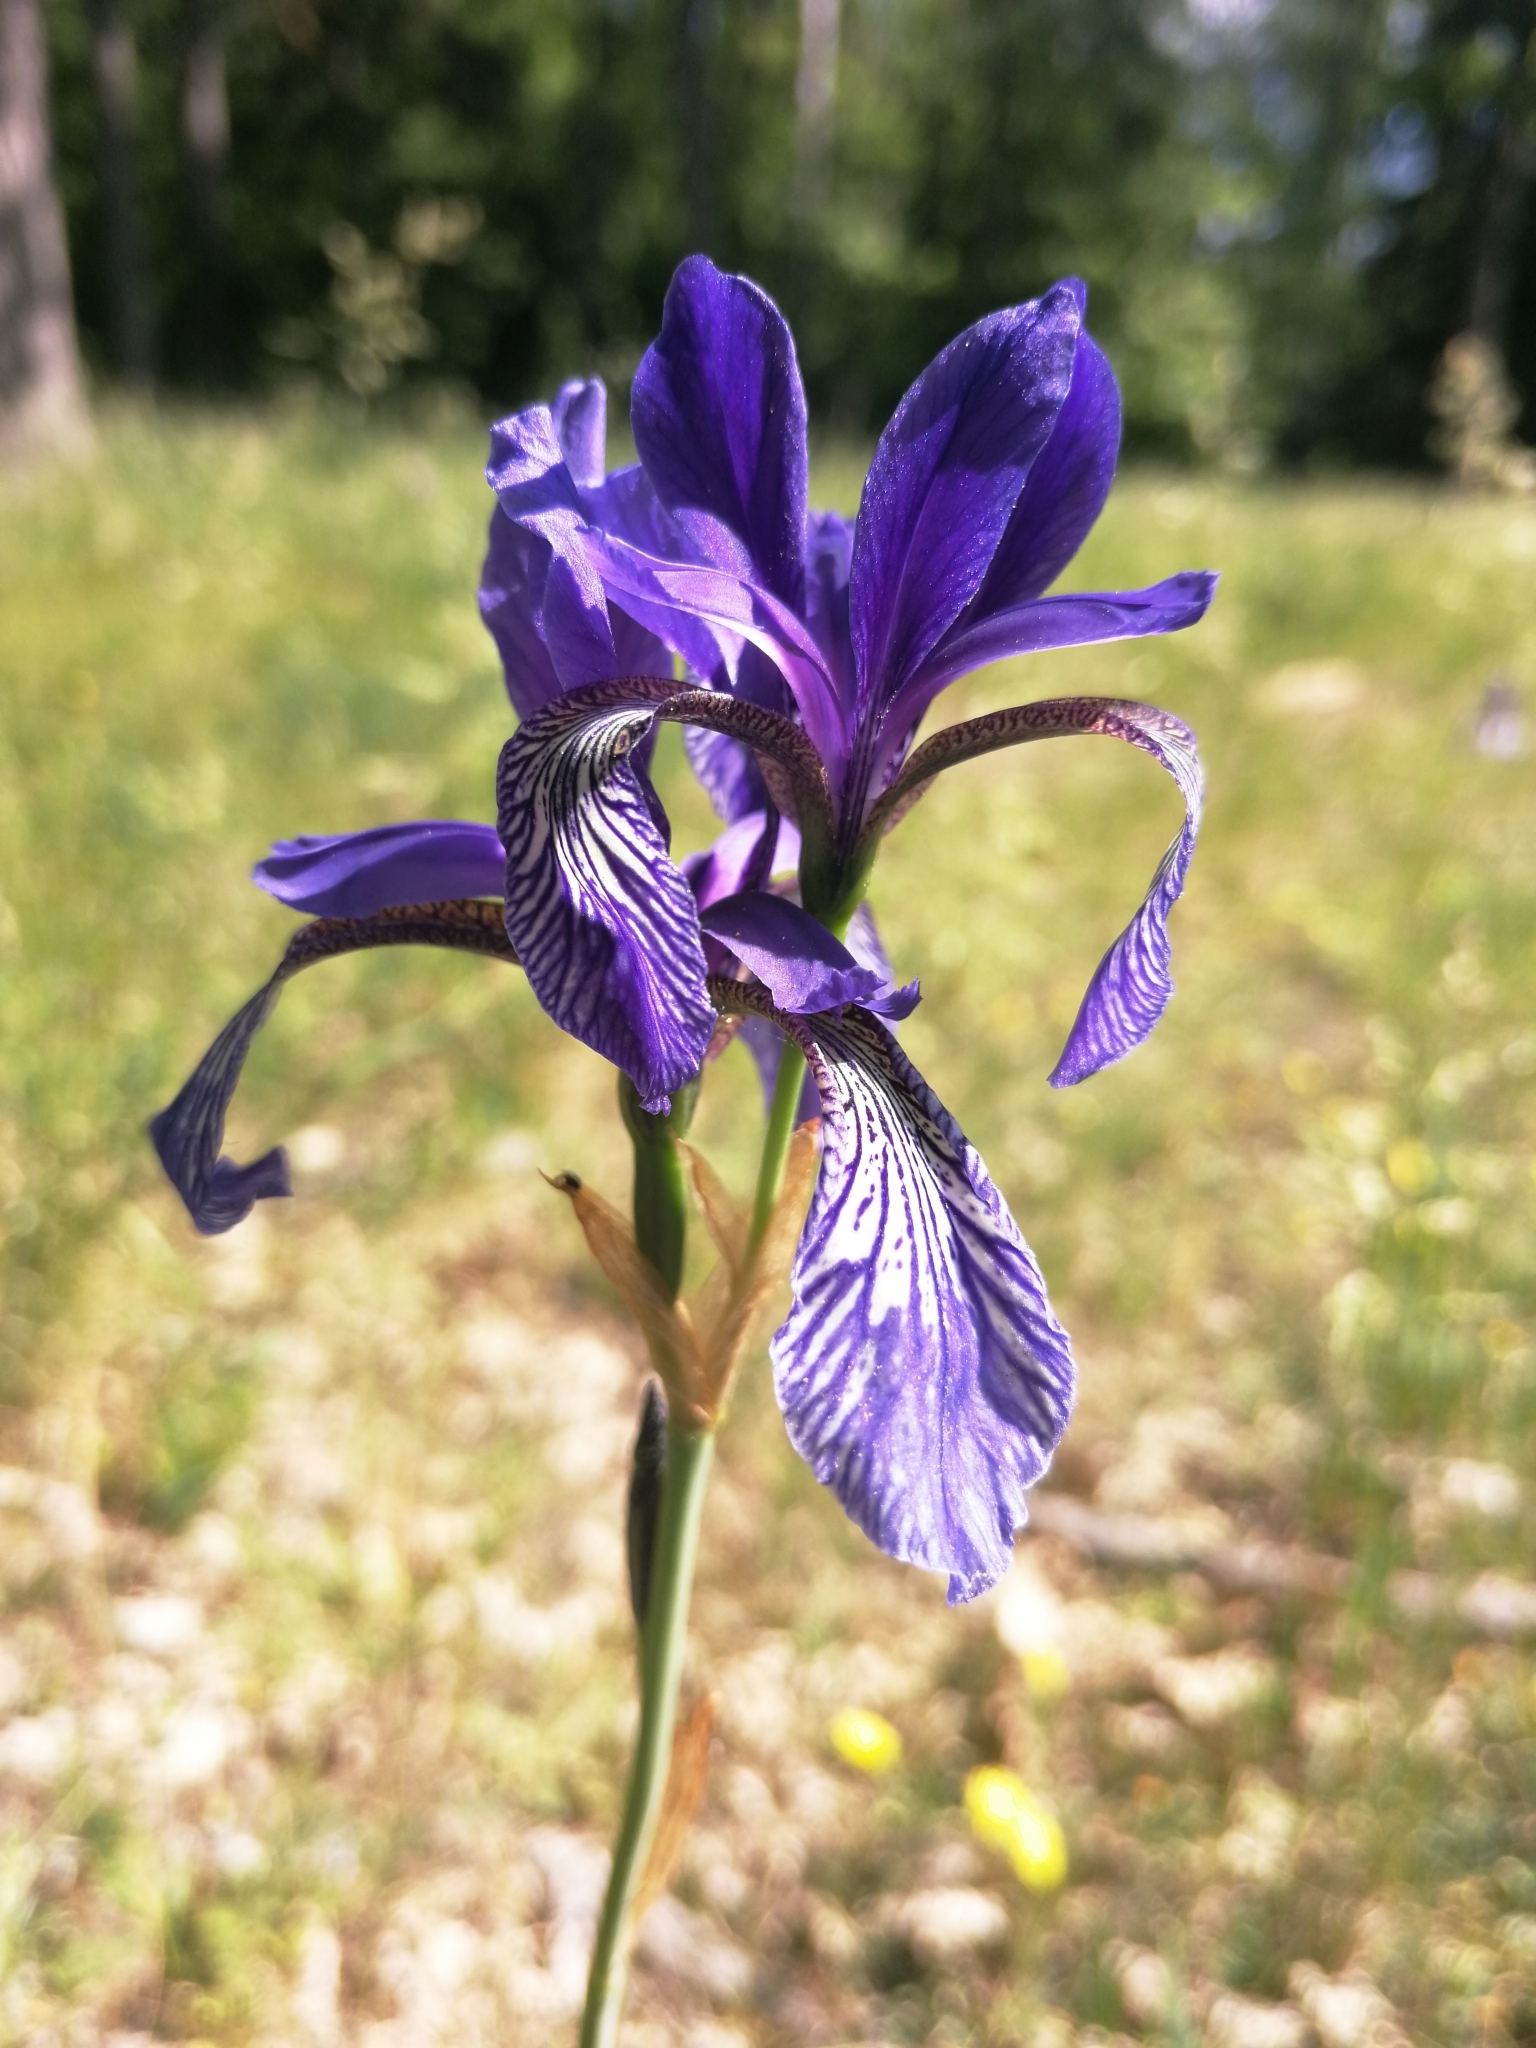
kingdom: Plantae
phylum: Tracheophyta
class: Liliopsida
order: Asparagales
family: Iridaceae
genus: Iris
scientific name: Iris sibirica
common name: Siberian iris
